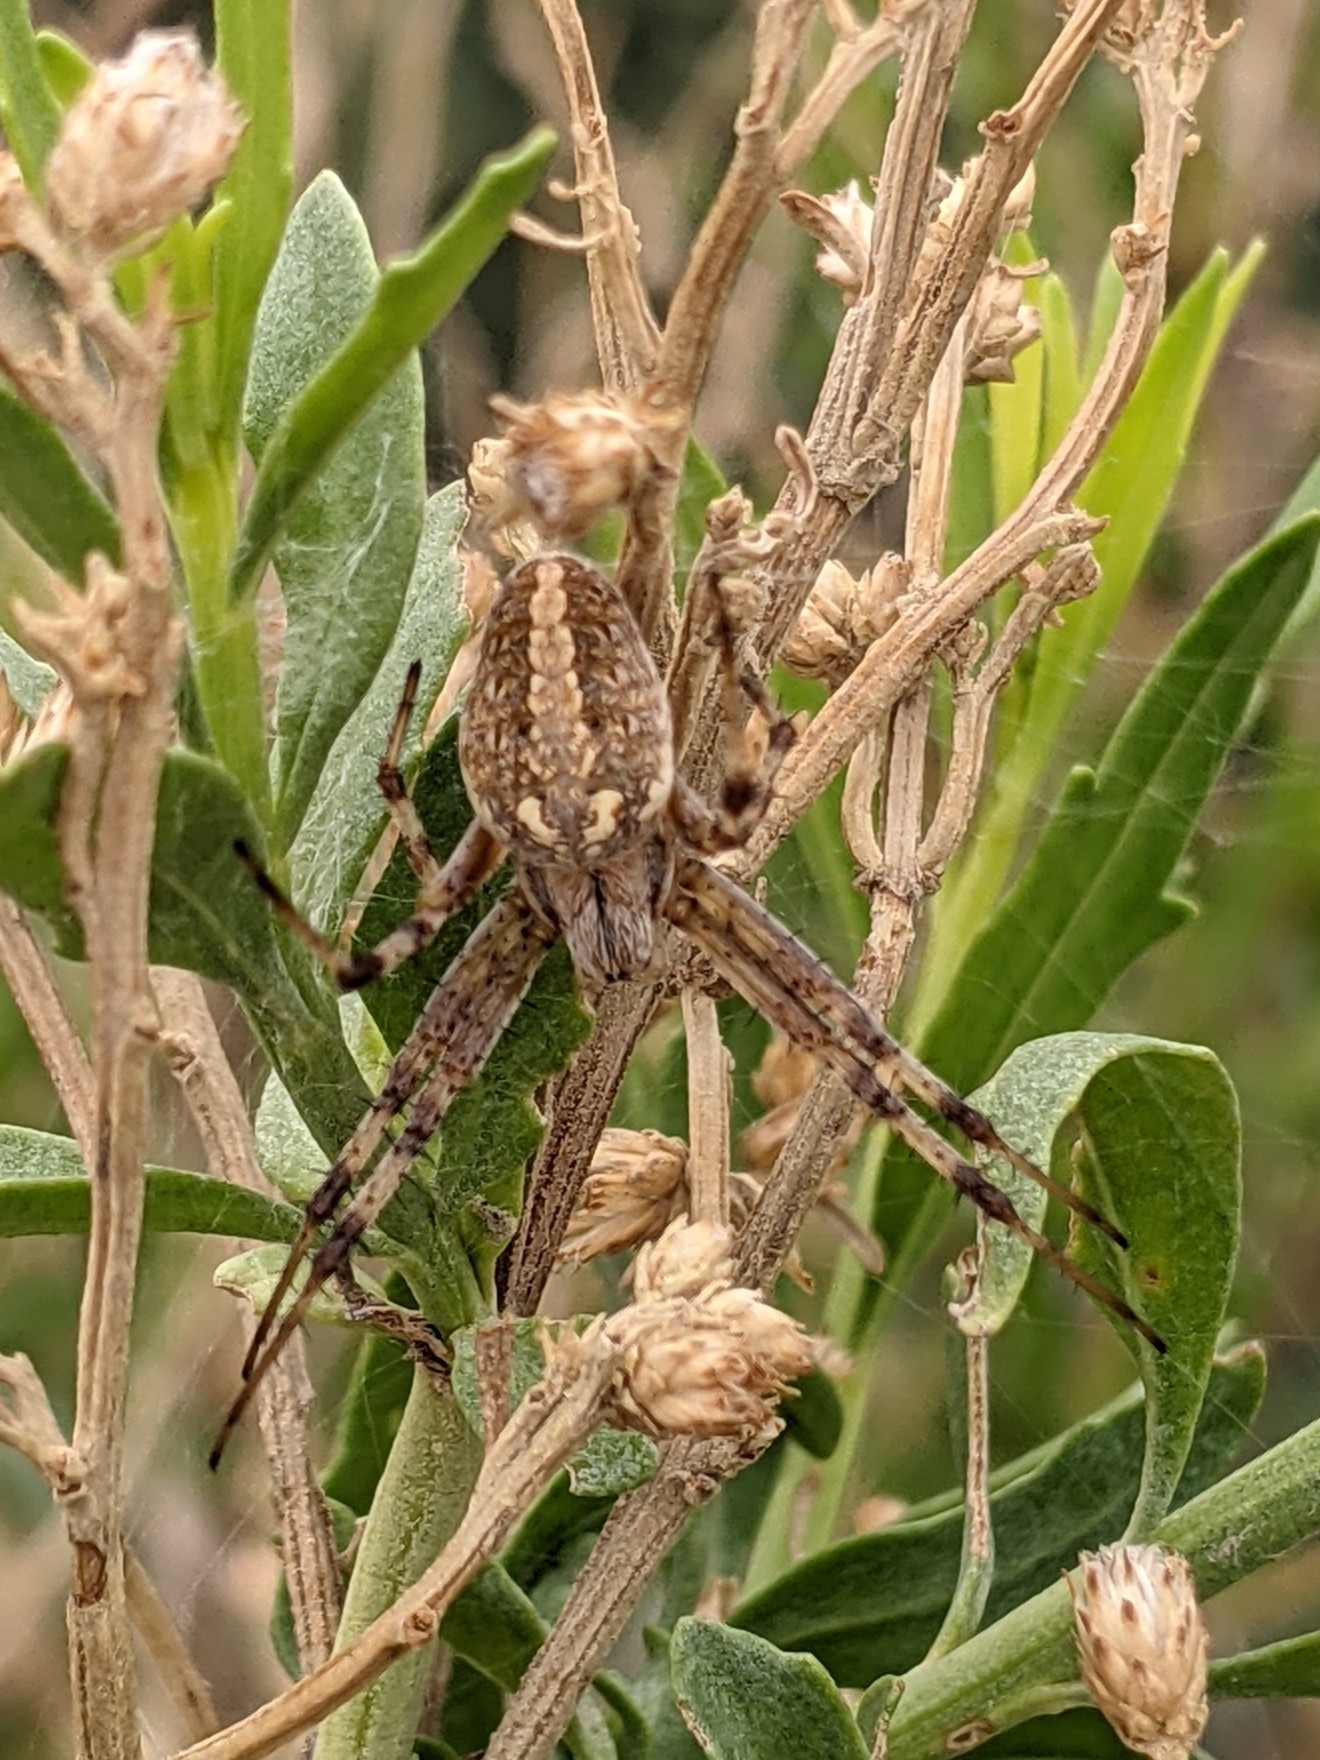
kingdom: Animalia
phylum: Arthropoda
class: Arachnida
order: Araneae
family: Araneidae
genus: Neoscona
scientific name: Neoscona oaxacensis
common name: Orb weavers
